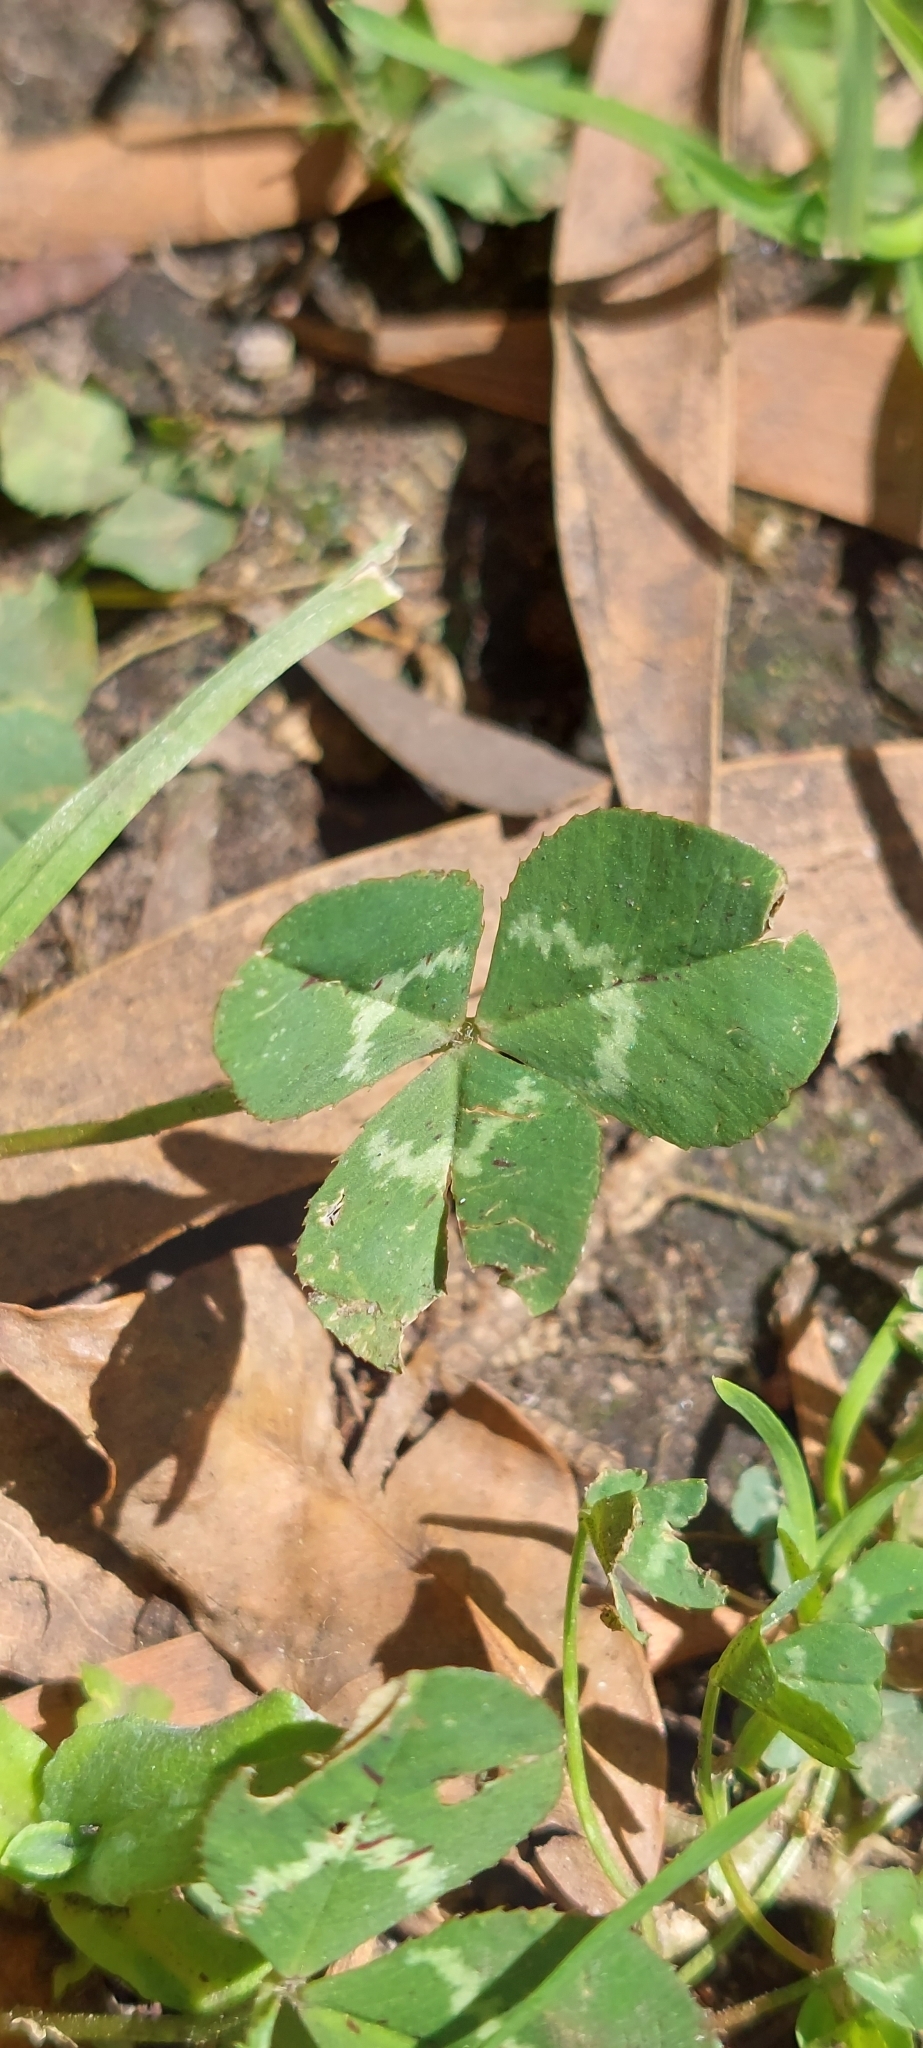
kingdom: Plantae
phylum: Tracheophyta
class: Magnoliopsida
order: Fabales
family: Fabaceae
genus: Trifolium
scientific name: Trifolium repens
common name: White clover
